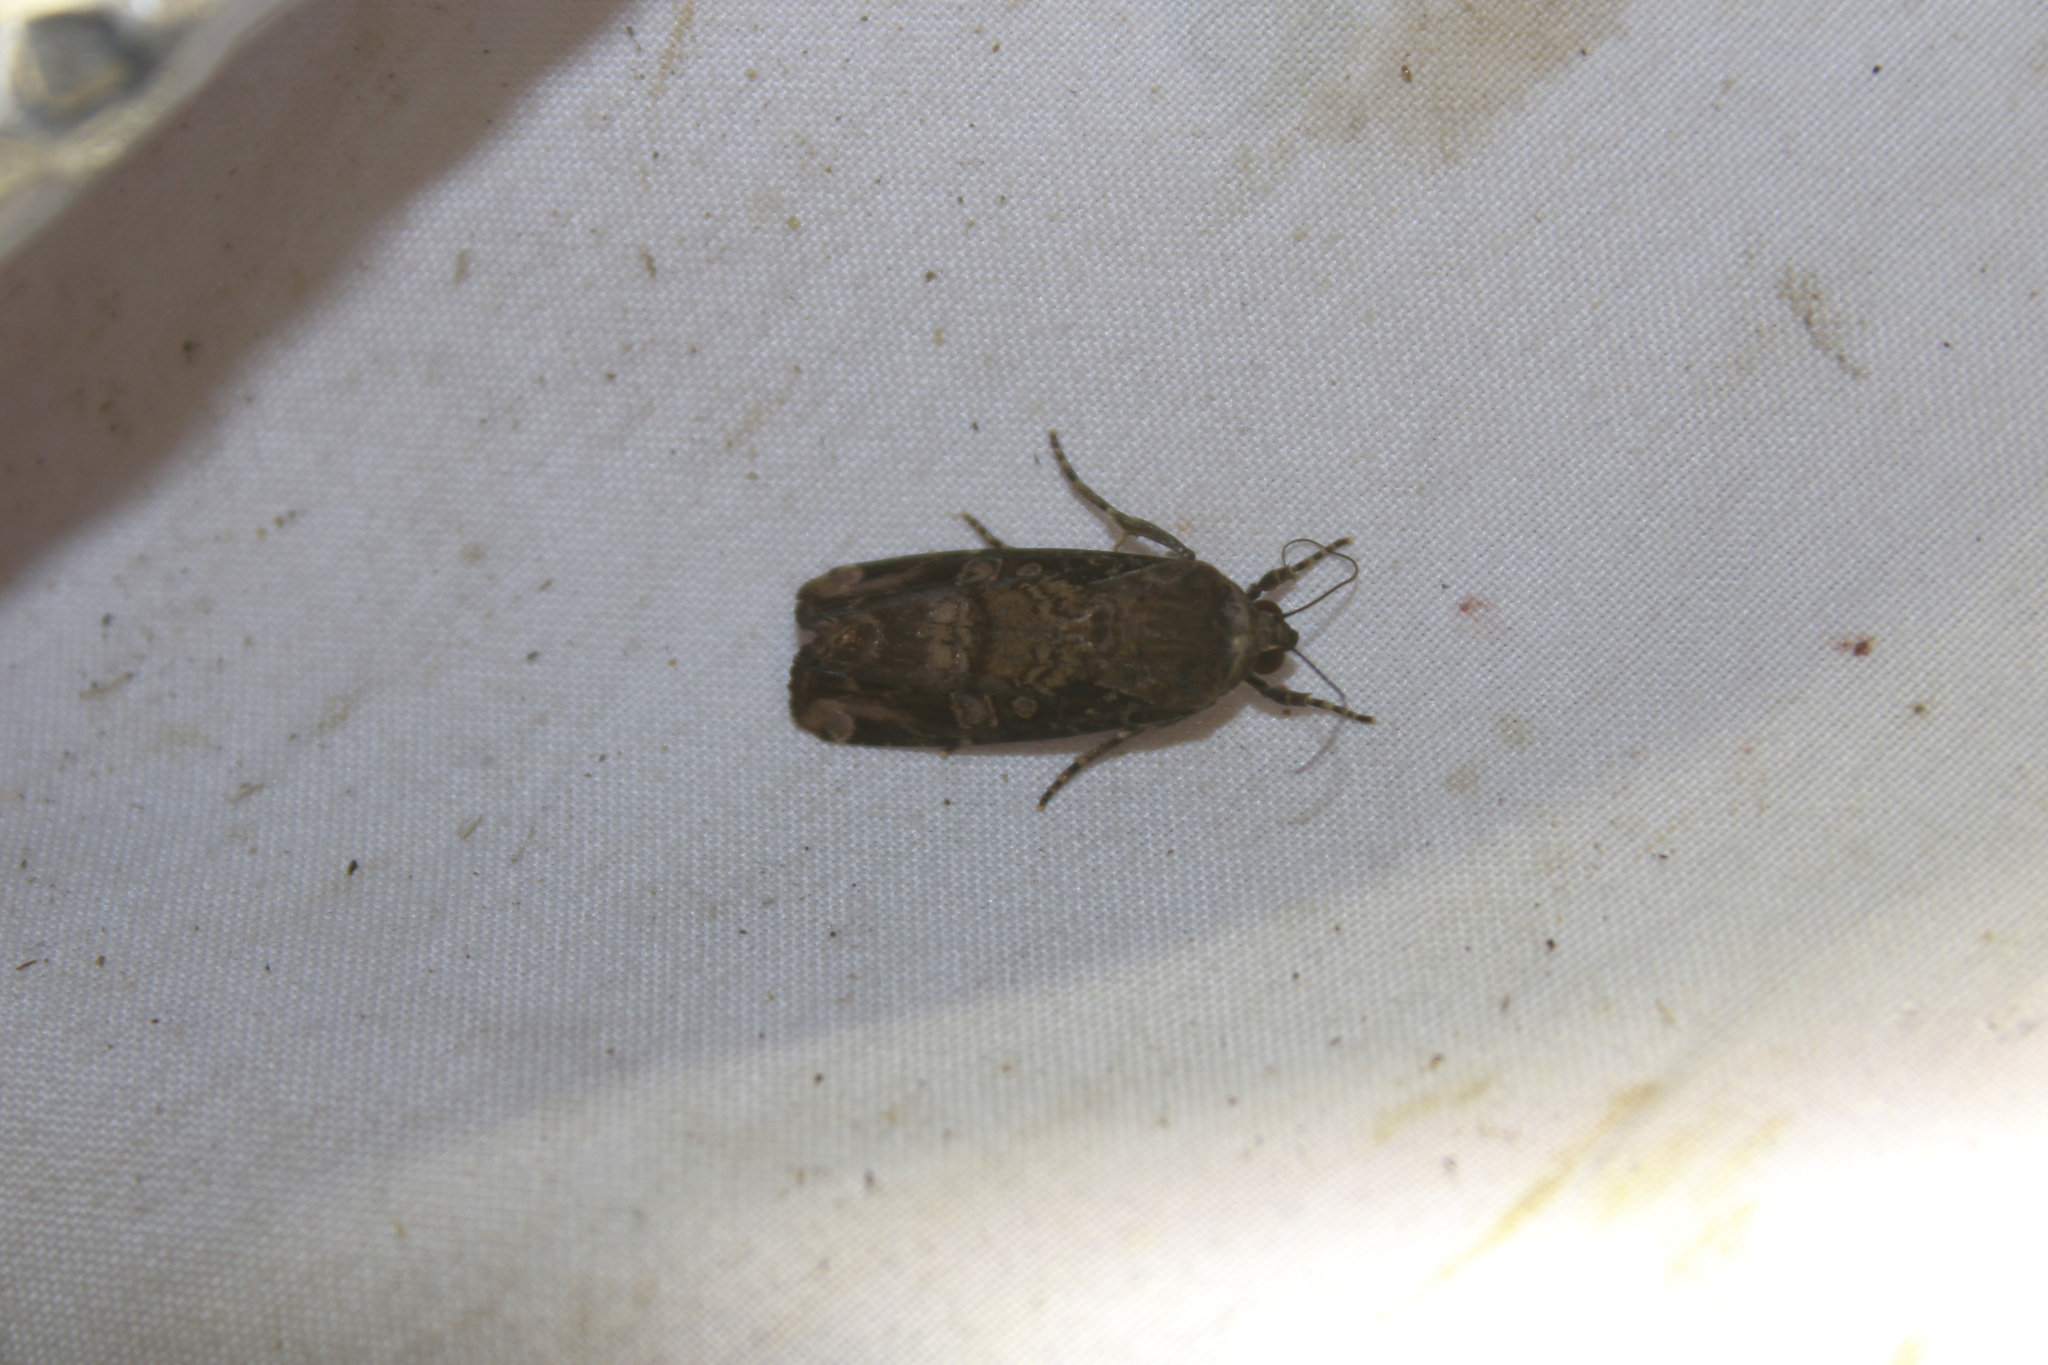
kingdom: Animalia
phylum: Arthropoda
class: Insecta
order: Lepidoptera
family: Noctuidae
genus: Magusa
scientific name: Magusa orbifera
